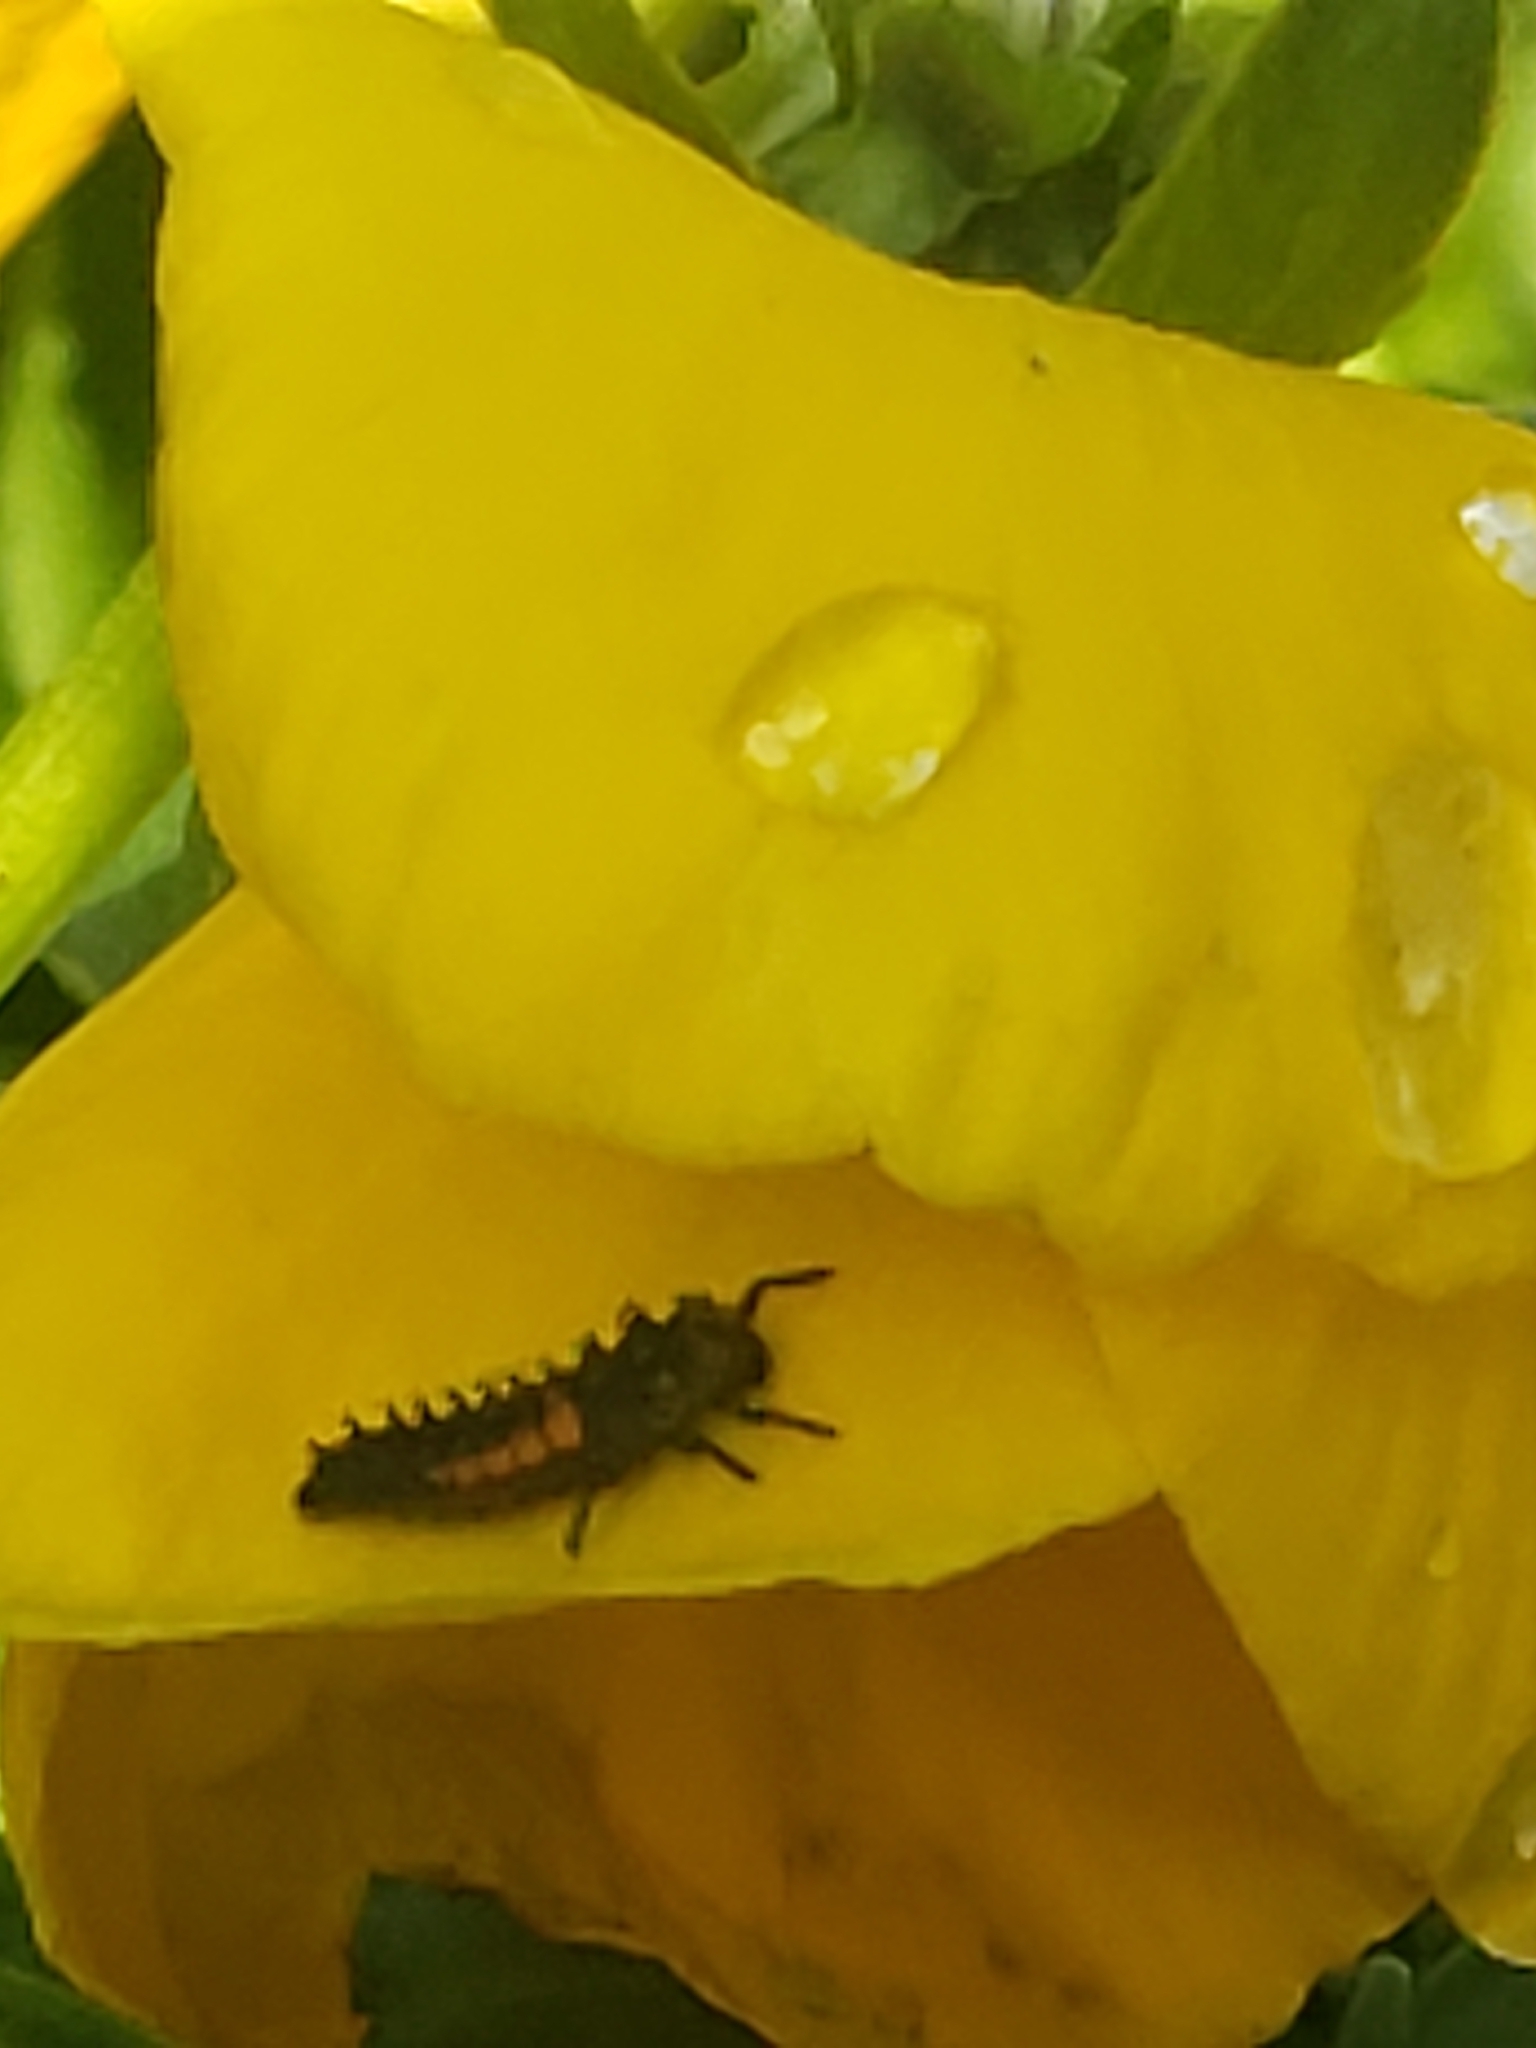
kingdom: Animalia
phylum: Arthropoda
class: Insecta
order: Coleoptera
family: Coccinellidae
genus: Harmonia
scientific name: Harmonia axyridis
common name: Harlequin ladybird
